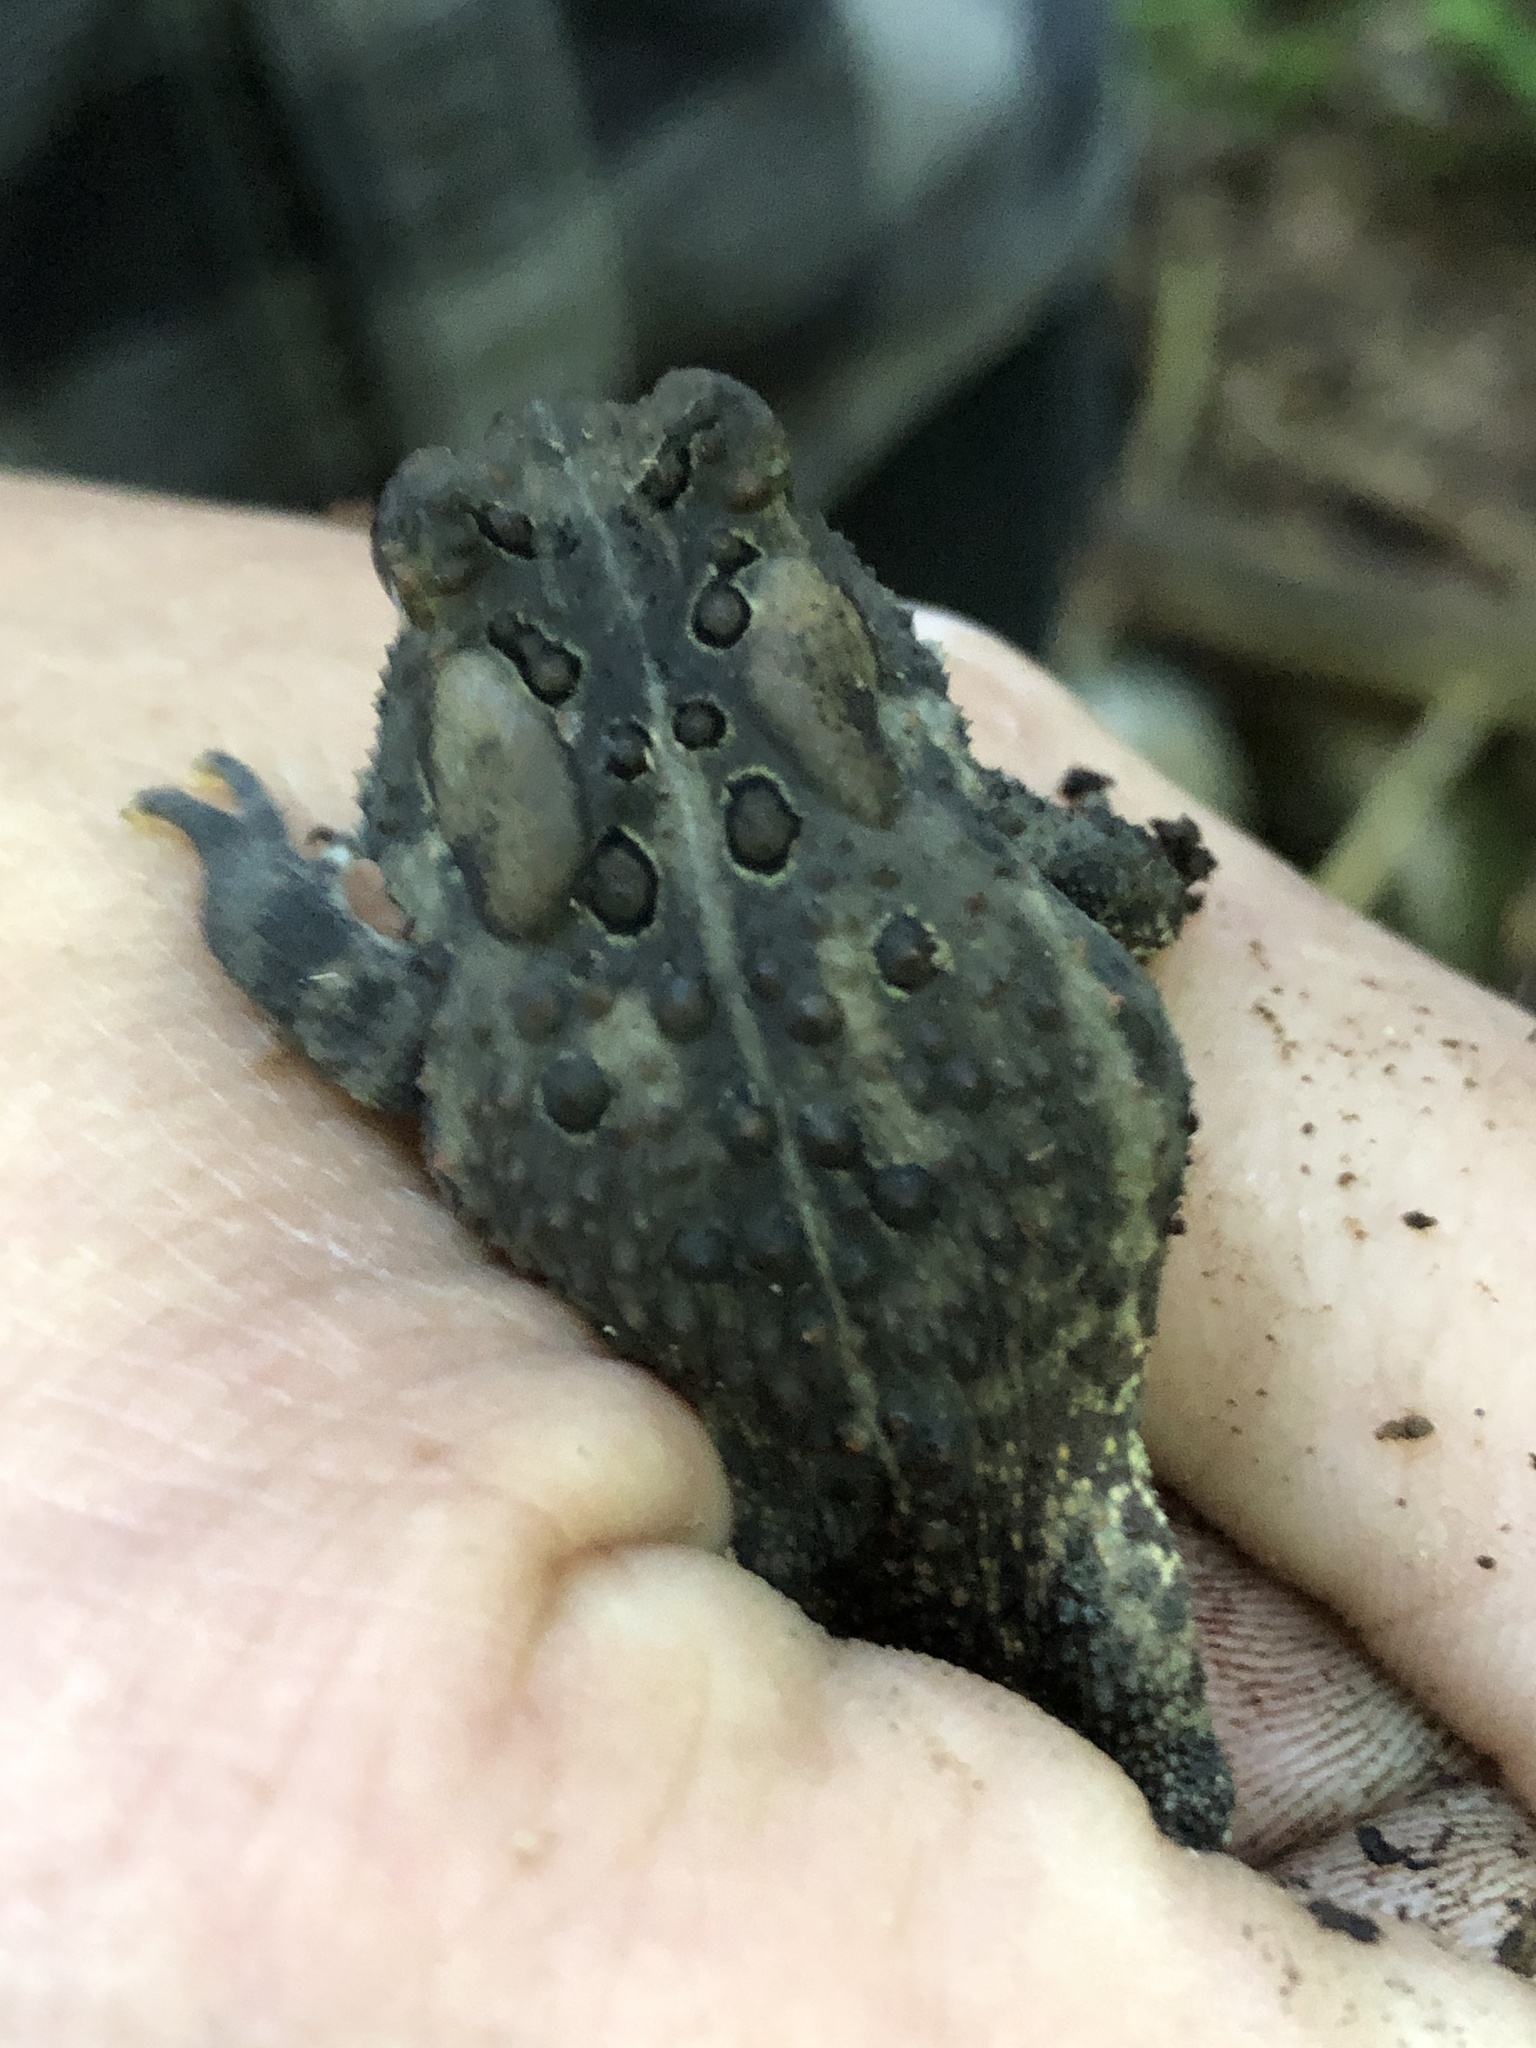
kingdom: Animalia
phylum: Chordata
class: Amphibia
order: Anura
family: Bufonidae
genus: Anaxyrus
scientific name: Anaxyrus americanus
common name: American toad
